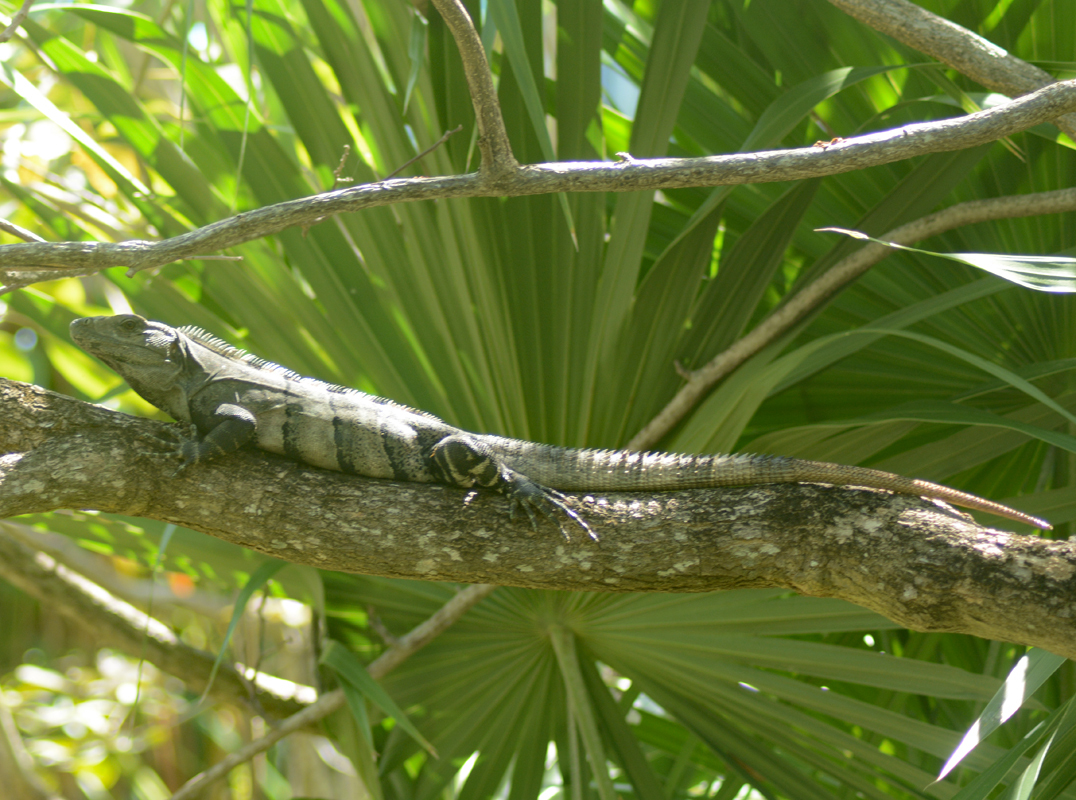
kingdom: Animalia
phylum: Chordata
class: Squamata
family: Iguanidae
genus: Ctenosaura
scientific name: Ctenosaura similis
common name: Black spiny-tailed iguana
